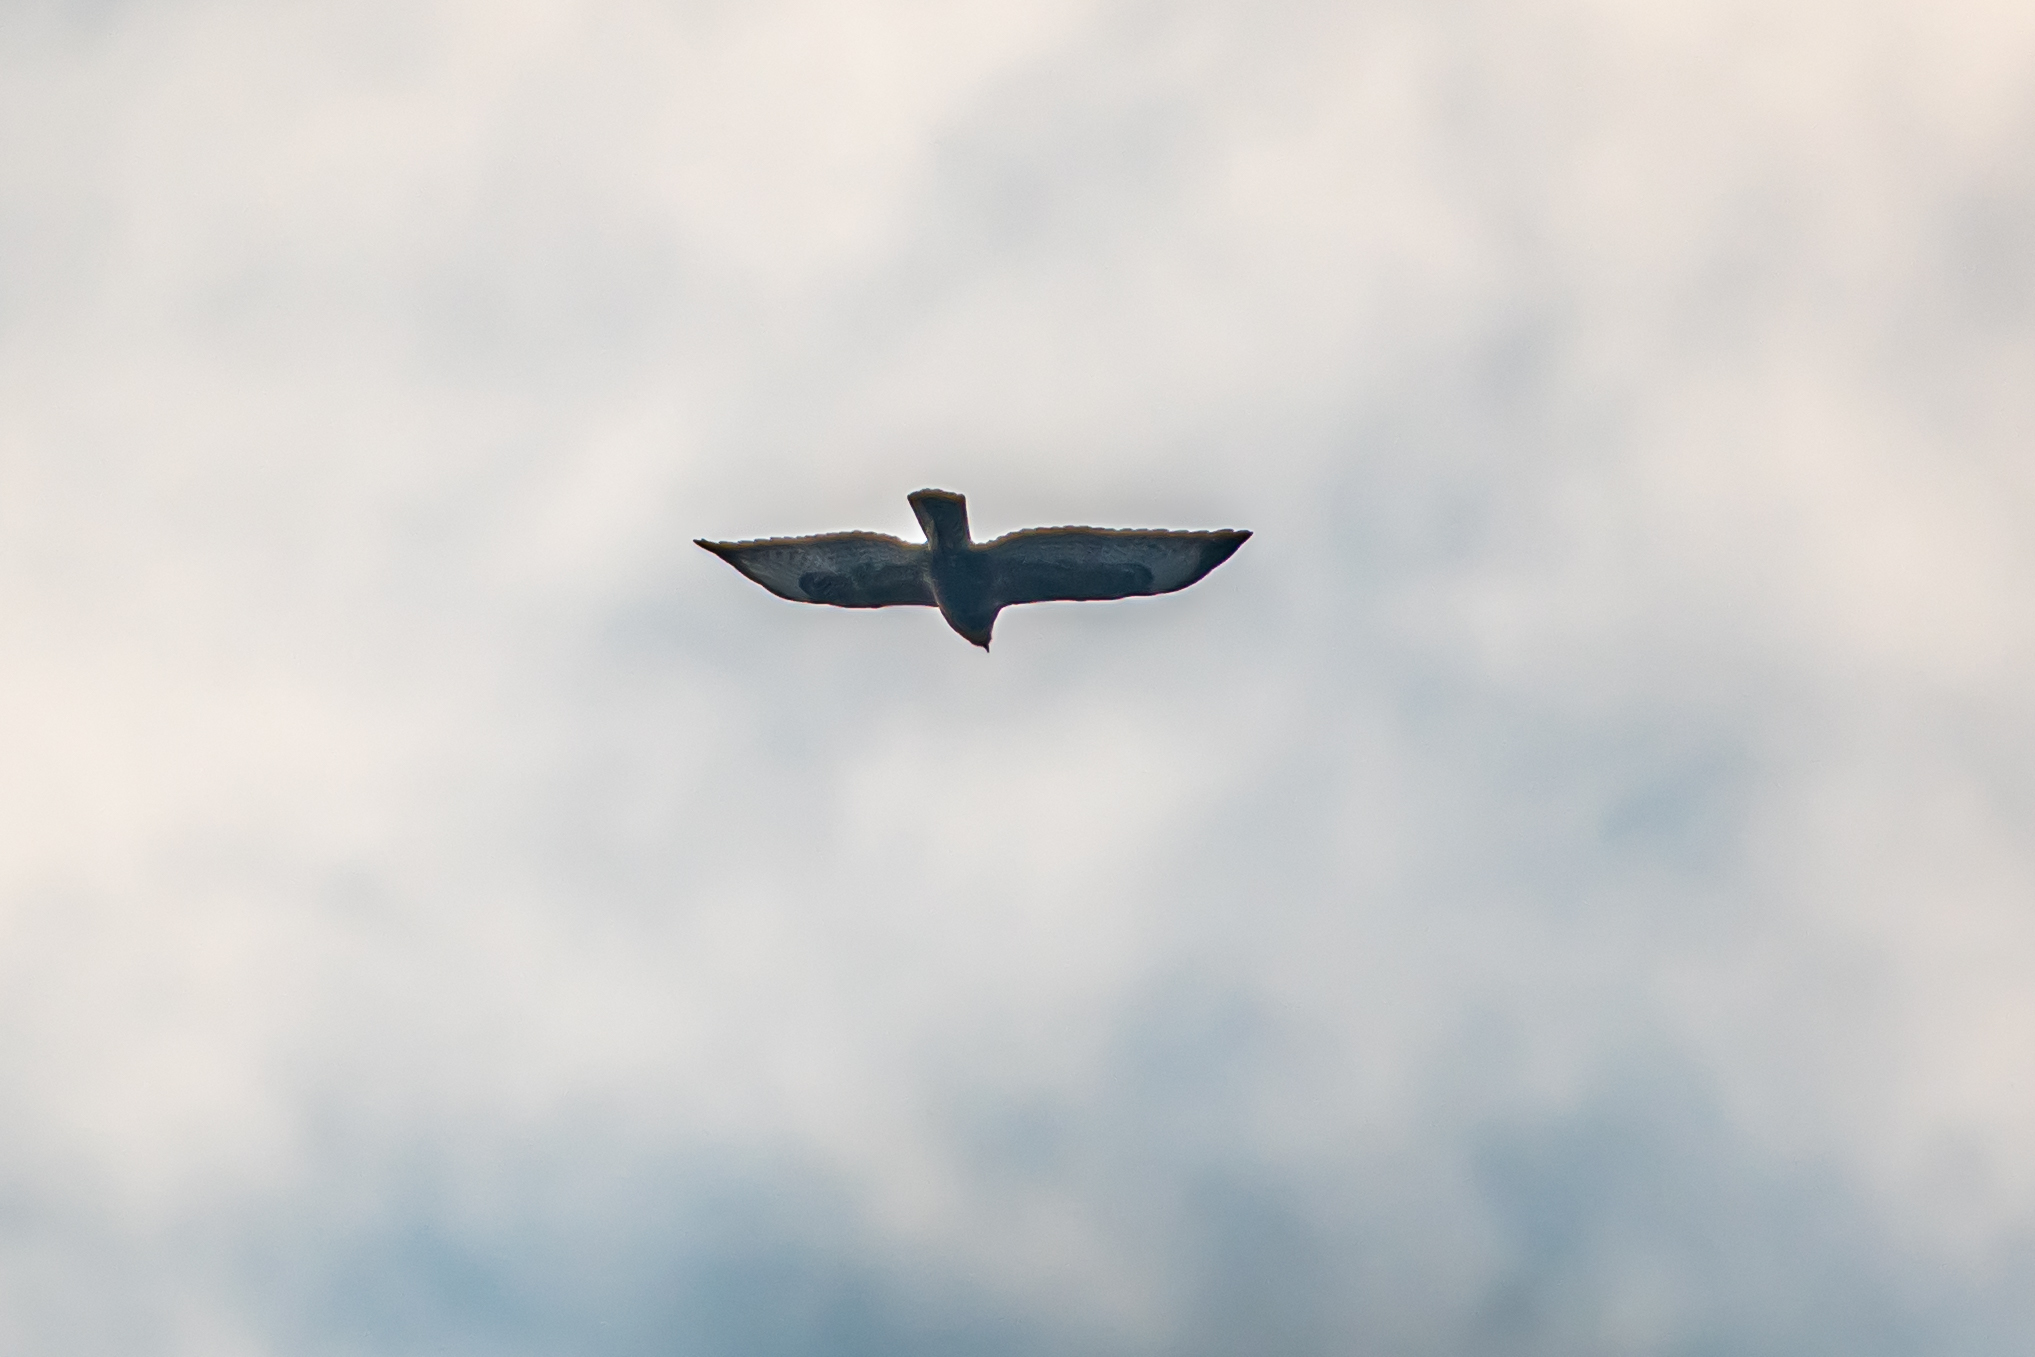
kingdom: Animalia
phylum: Chordata
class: Aves
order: Accipitriformes
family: Accipitridae
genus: Buteo
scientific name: Buteo buteo
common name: Common buzzard
